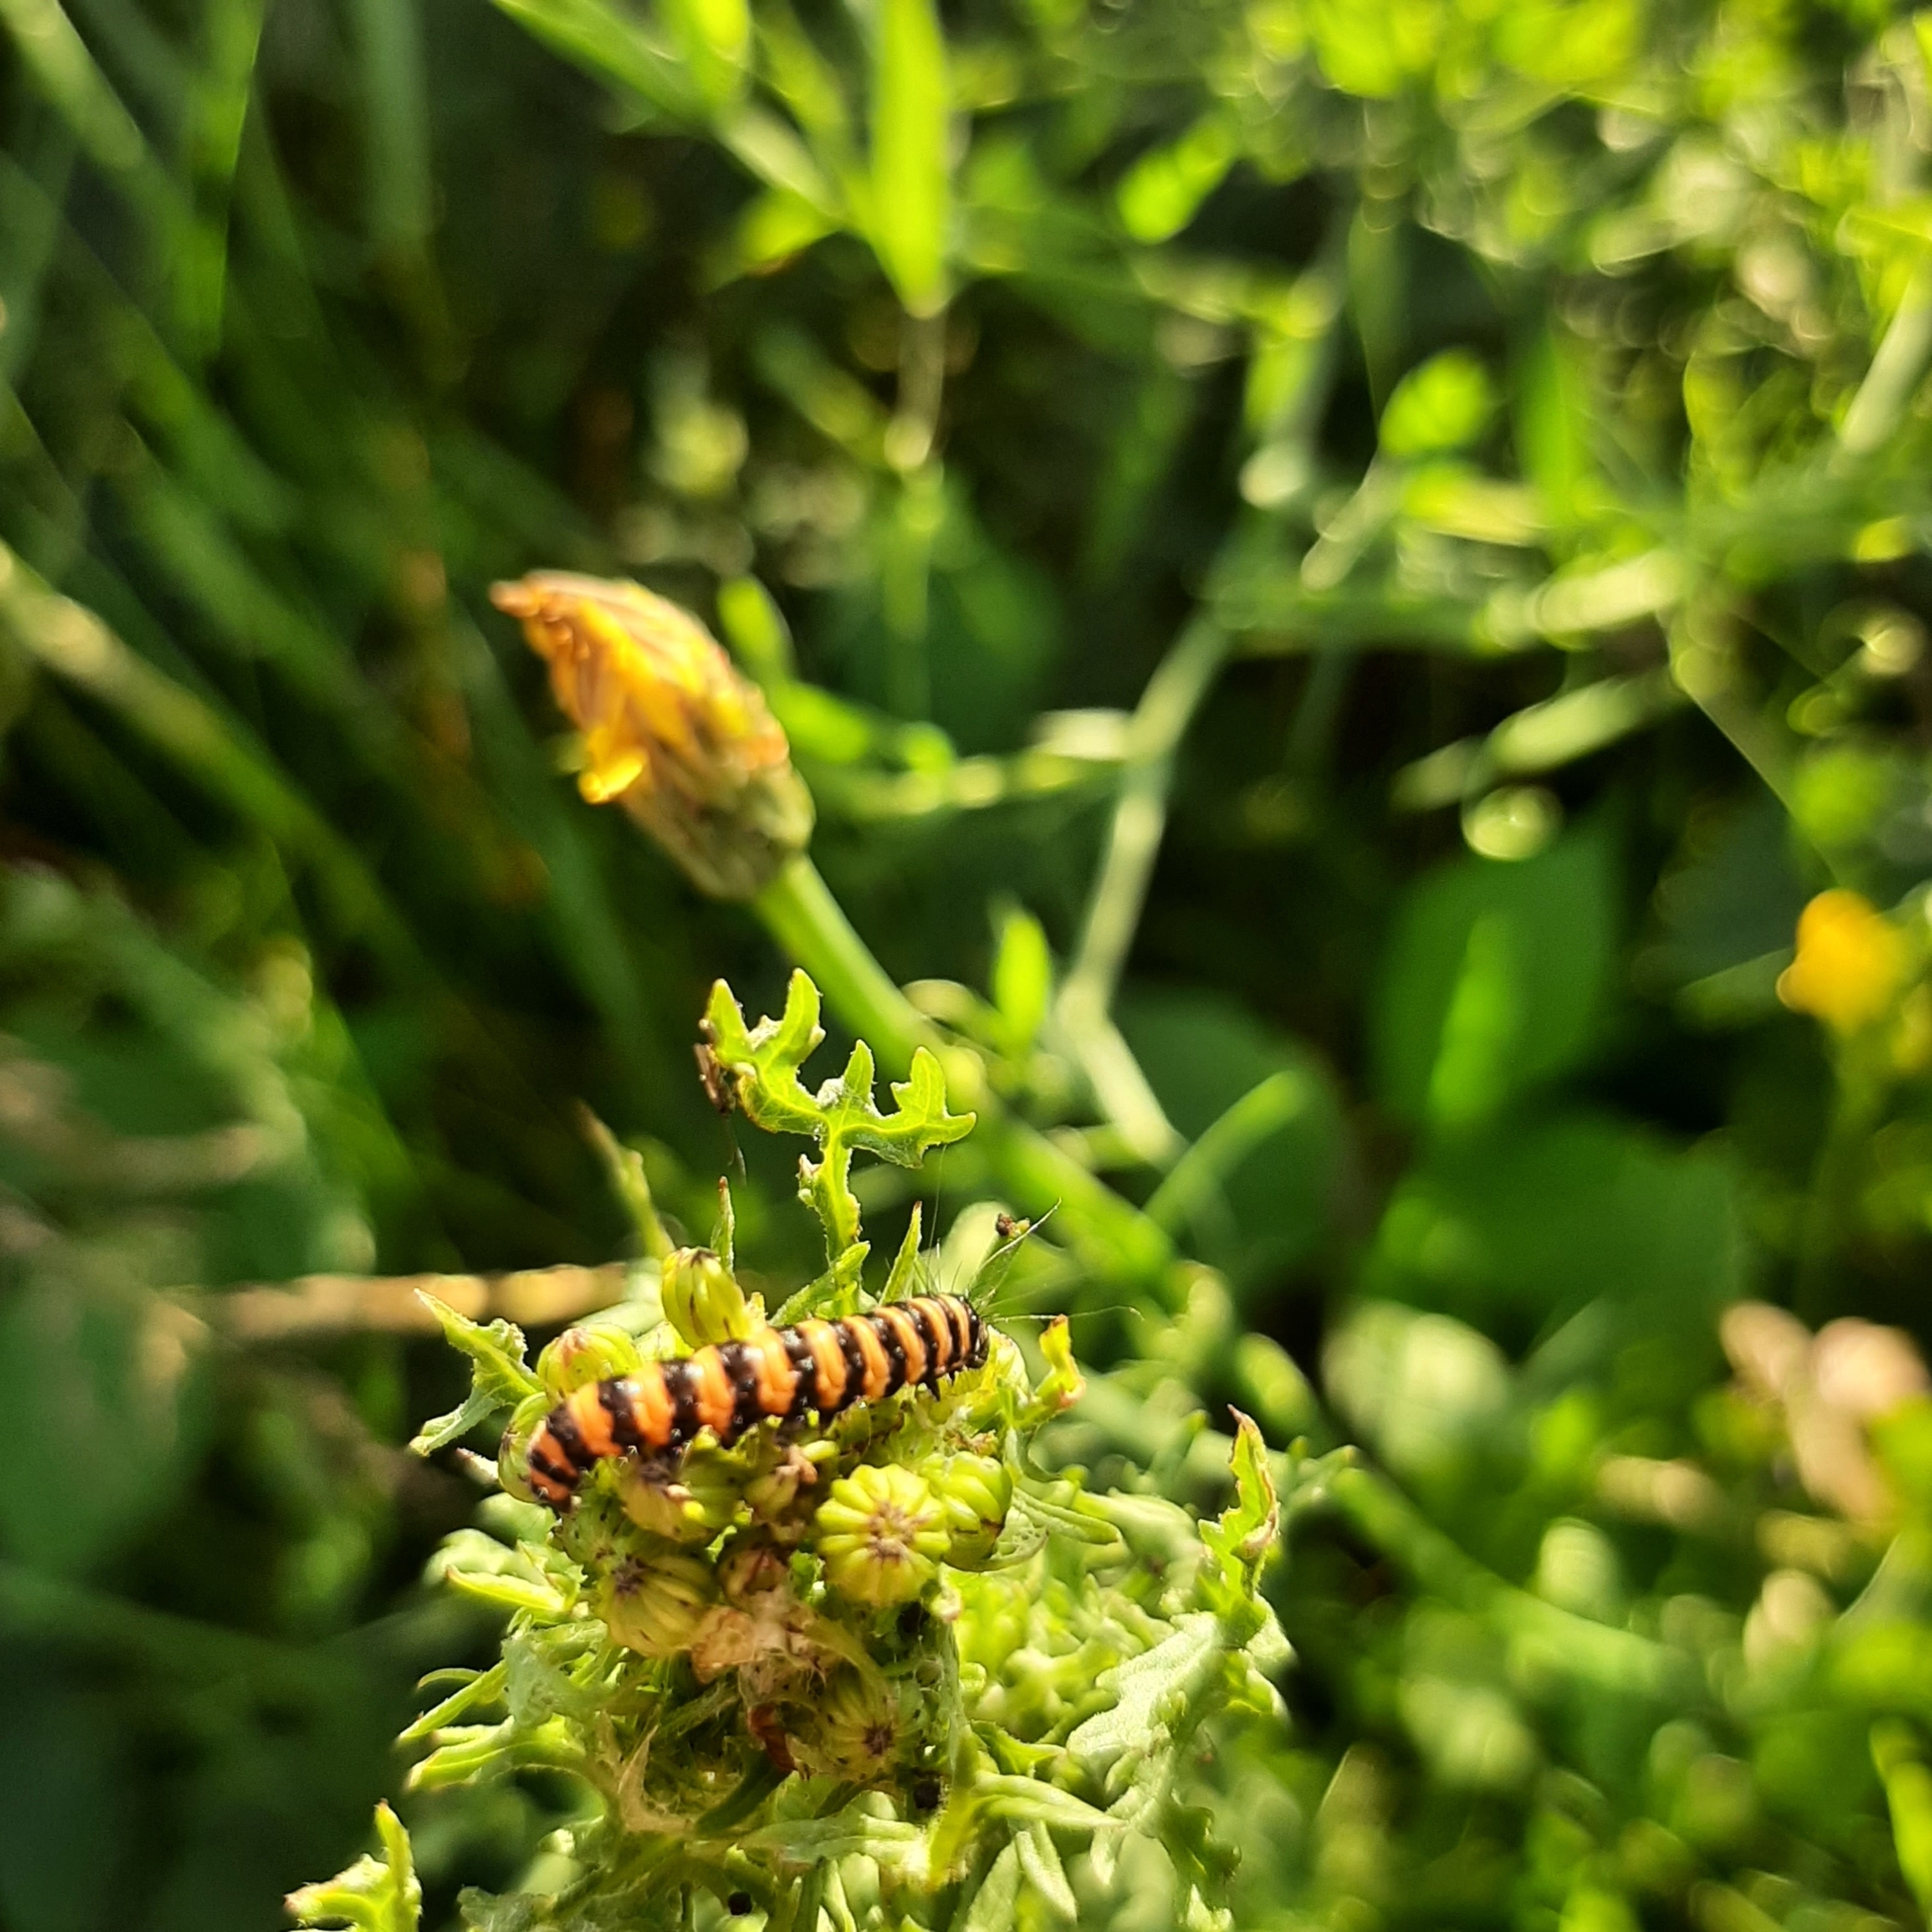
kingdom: Animalia
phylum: Arthropoda
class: Insecta
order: Lepidoptera
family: Erebidae
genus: Tyria
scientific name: Tyria jacobaeae
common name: Cinnabar
